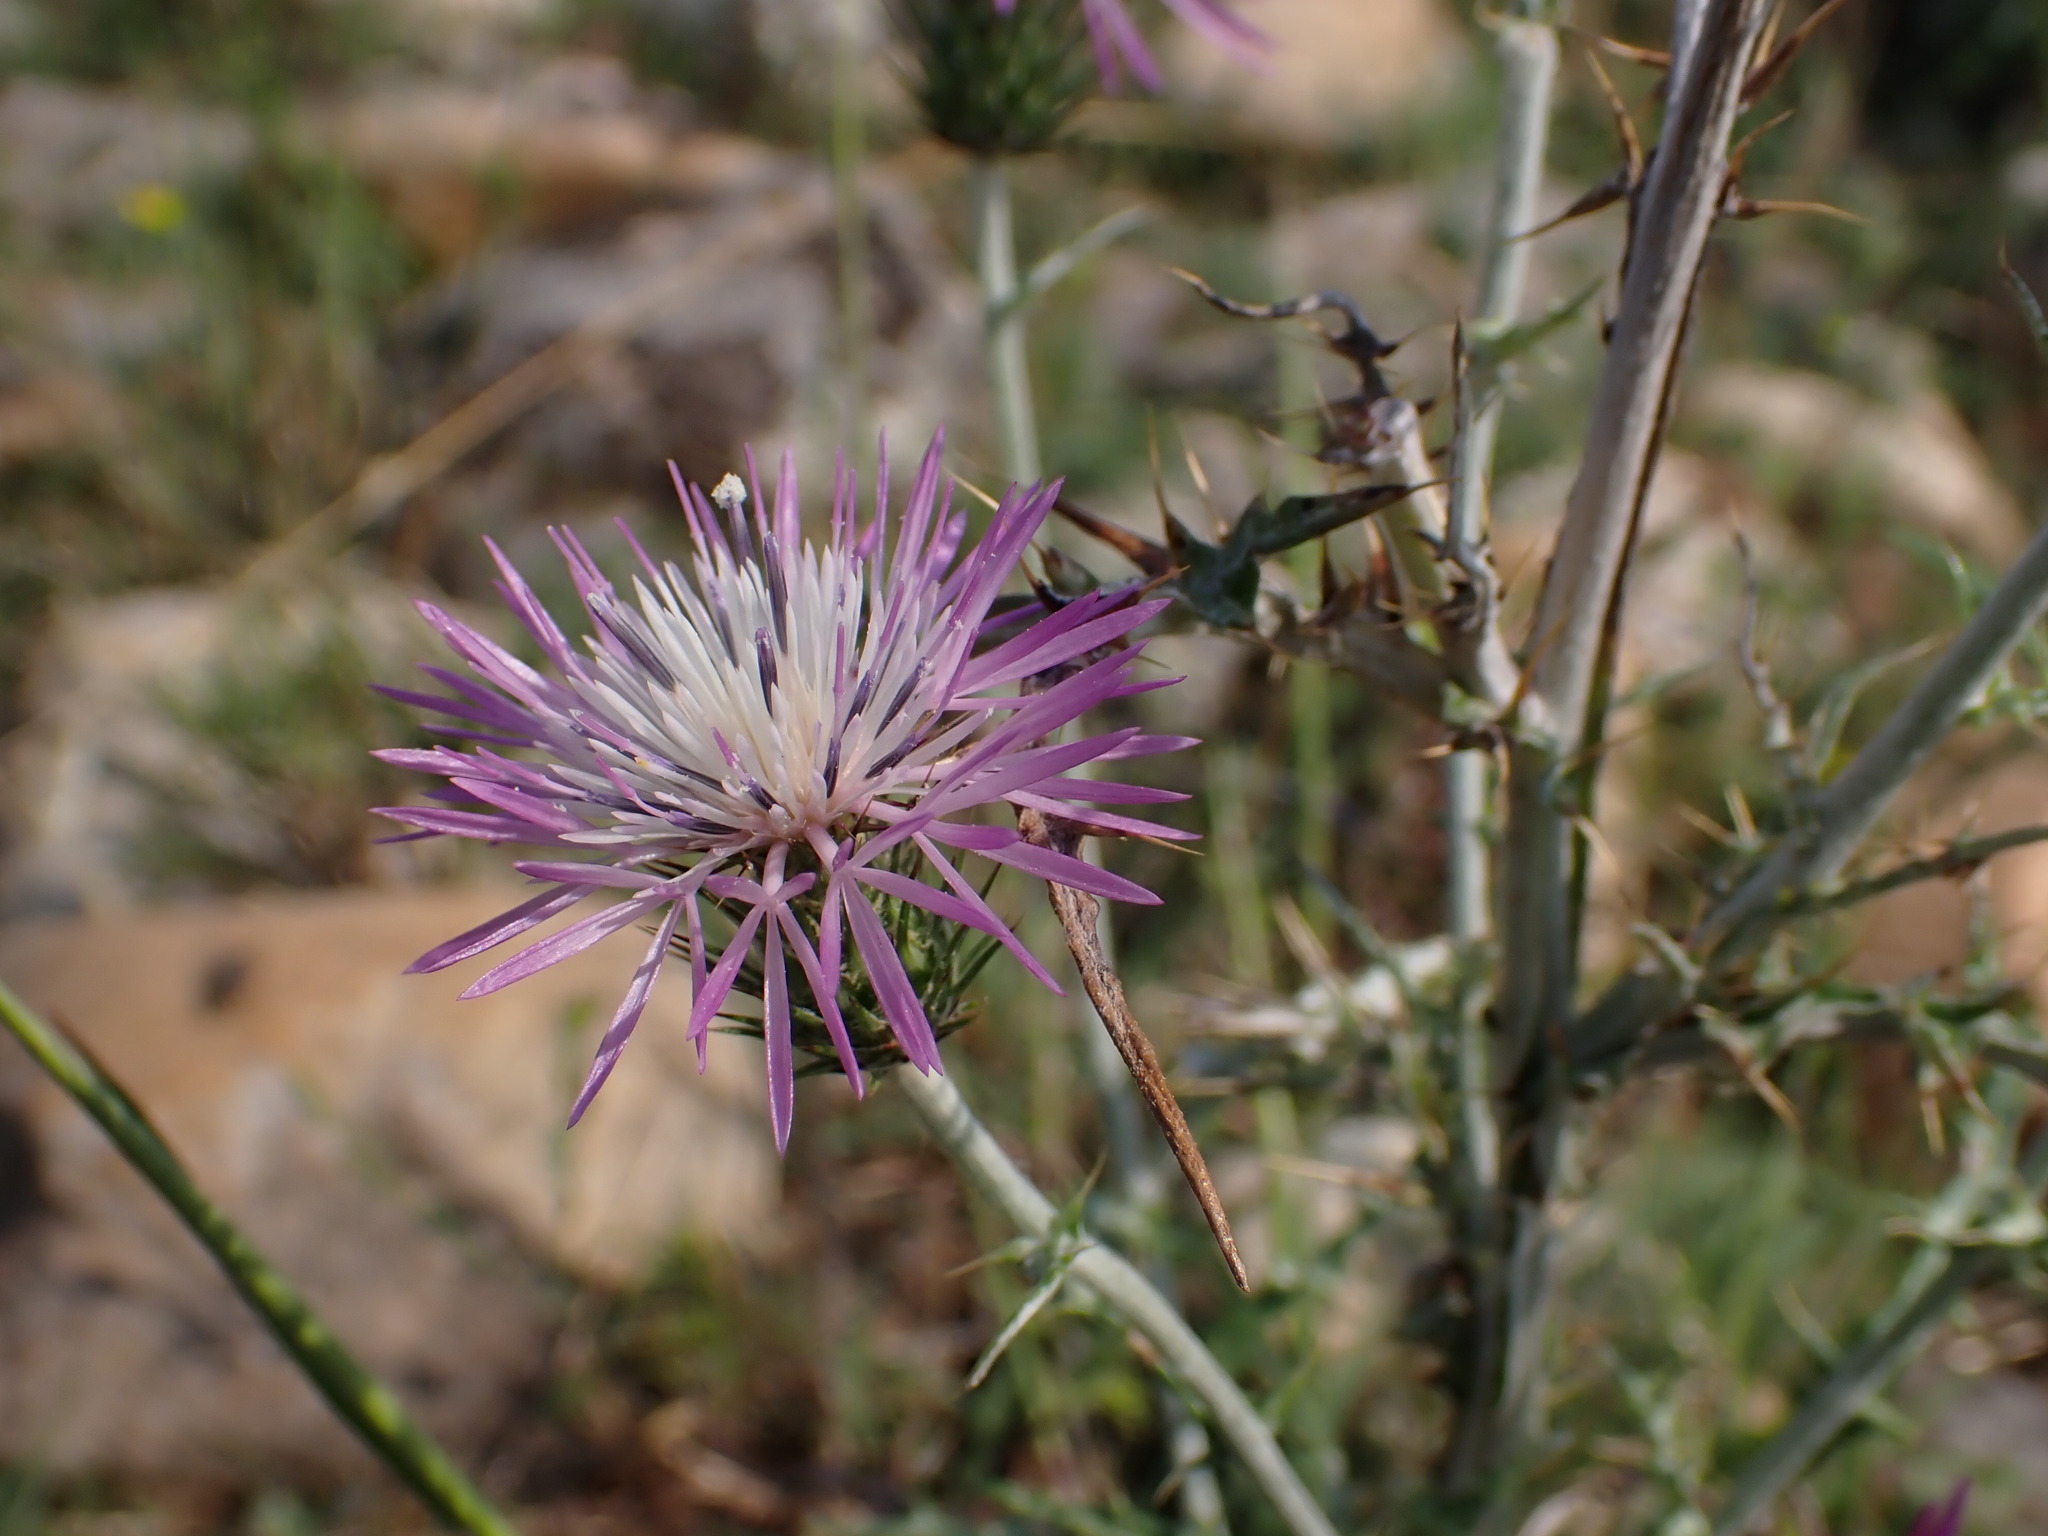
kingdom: Plantae
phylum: Tracheophyta
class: Magnoliopsida
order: Asterales
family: Asteraceae
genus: Galactites
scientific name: Galactites tomentosa
